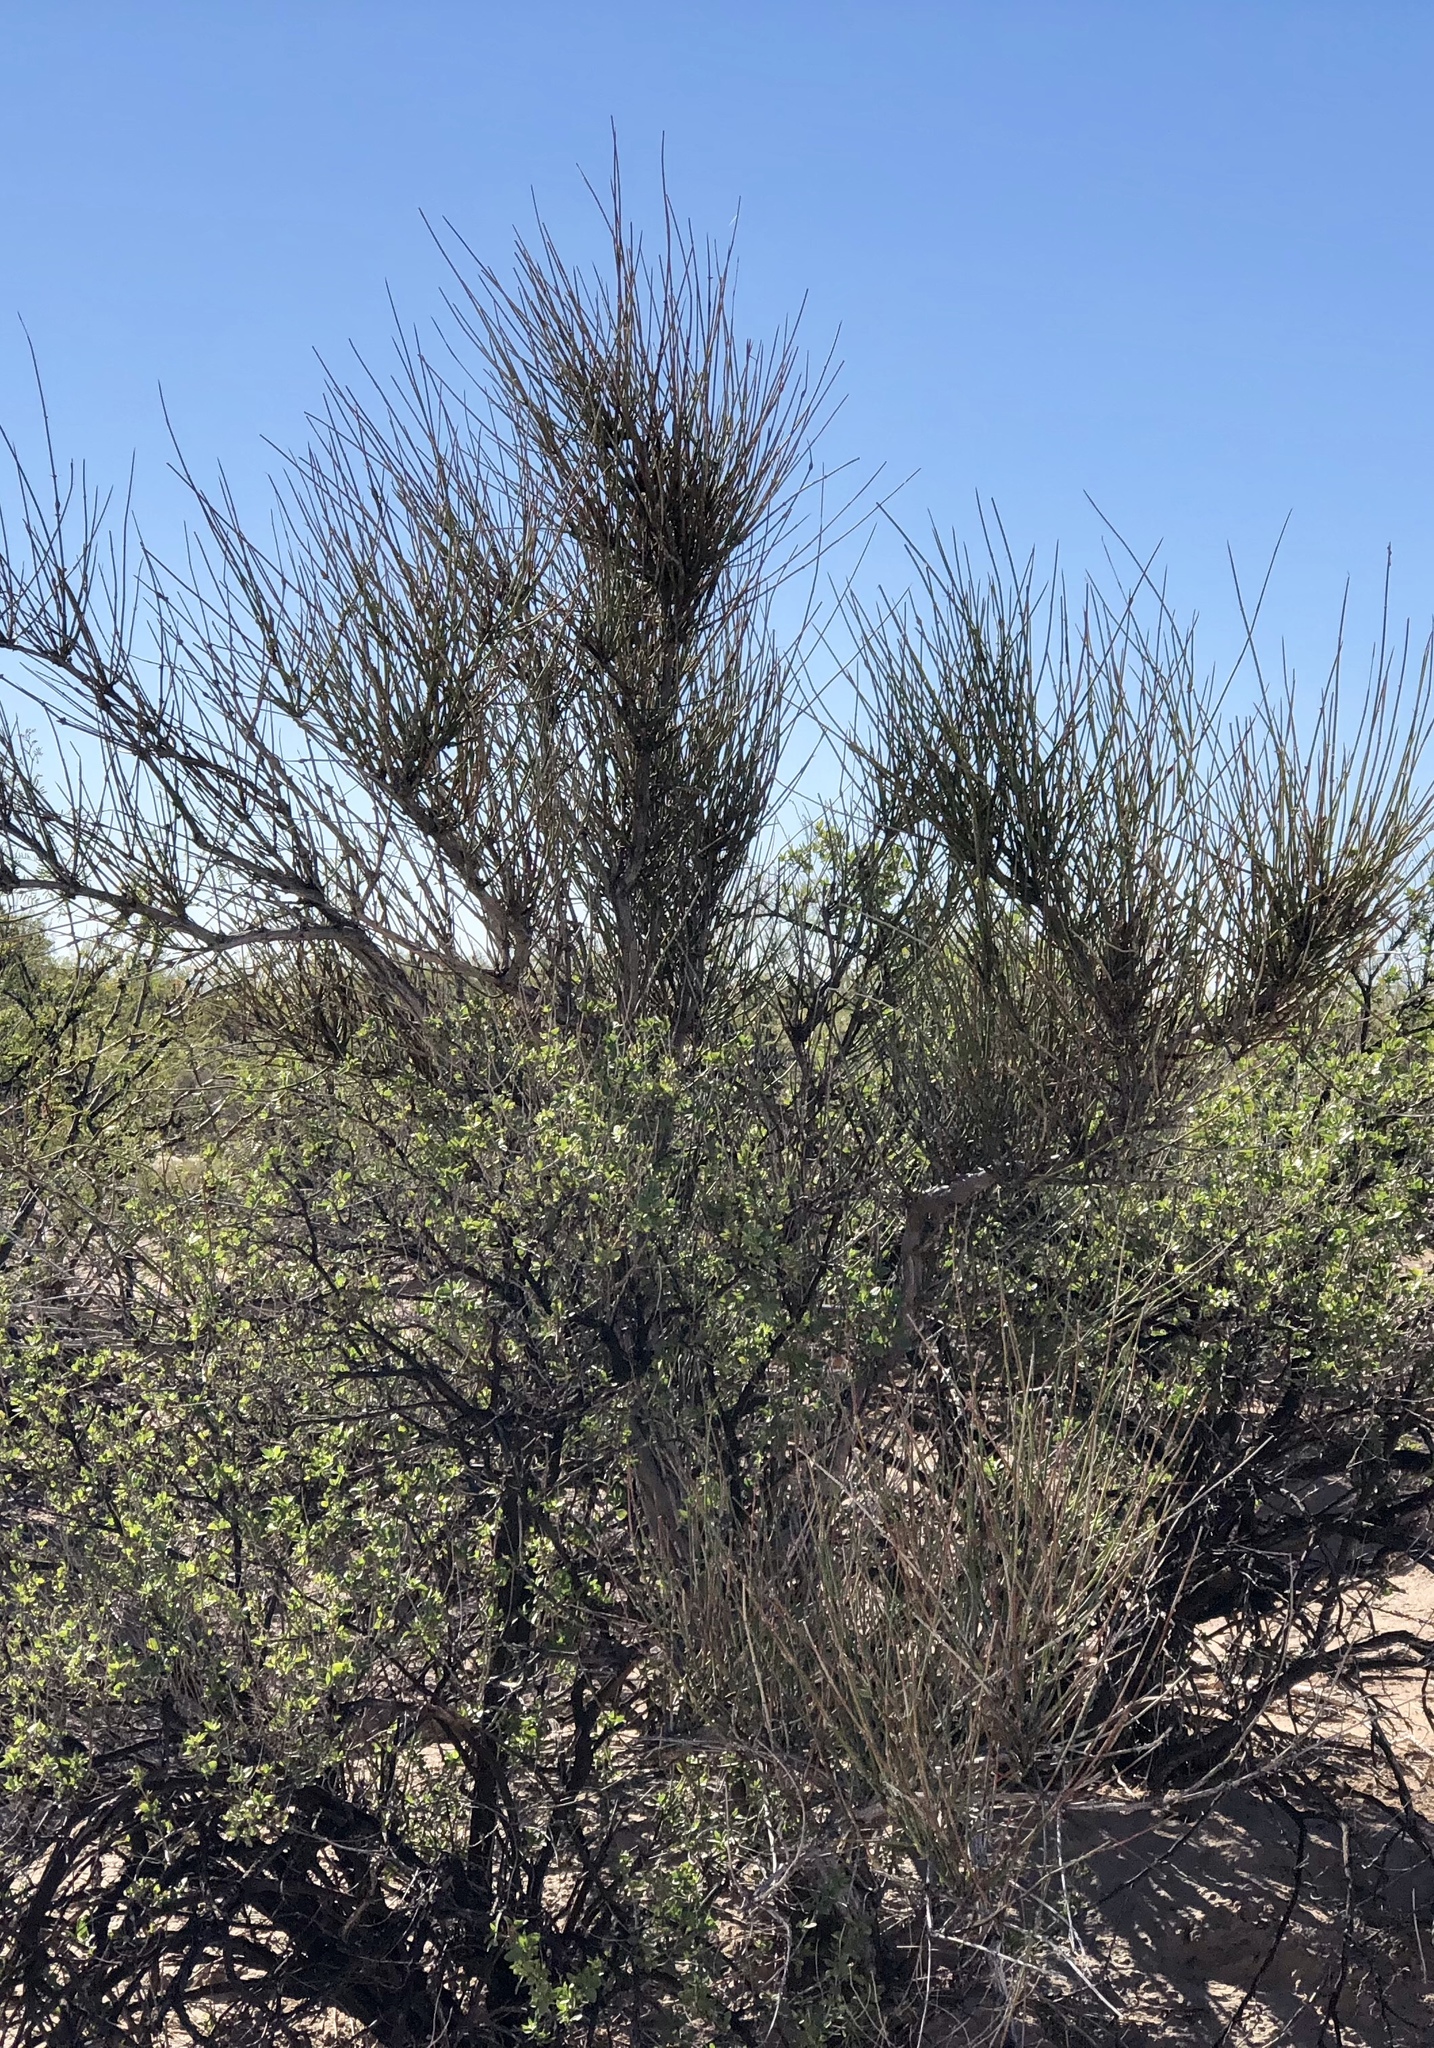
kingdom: Plantae
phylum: Tracheophyta
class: Gnetopsida
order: Ephedrales
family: Ephedraceae
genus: Ephedra
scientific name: Ephedra trifurca
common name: Mexican-tea
